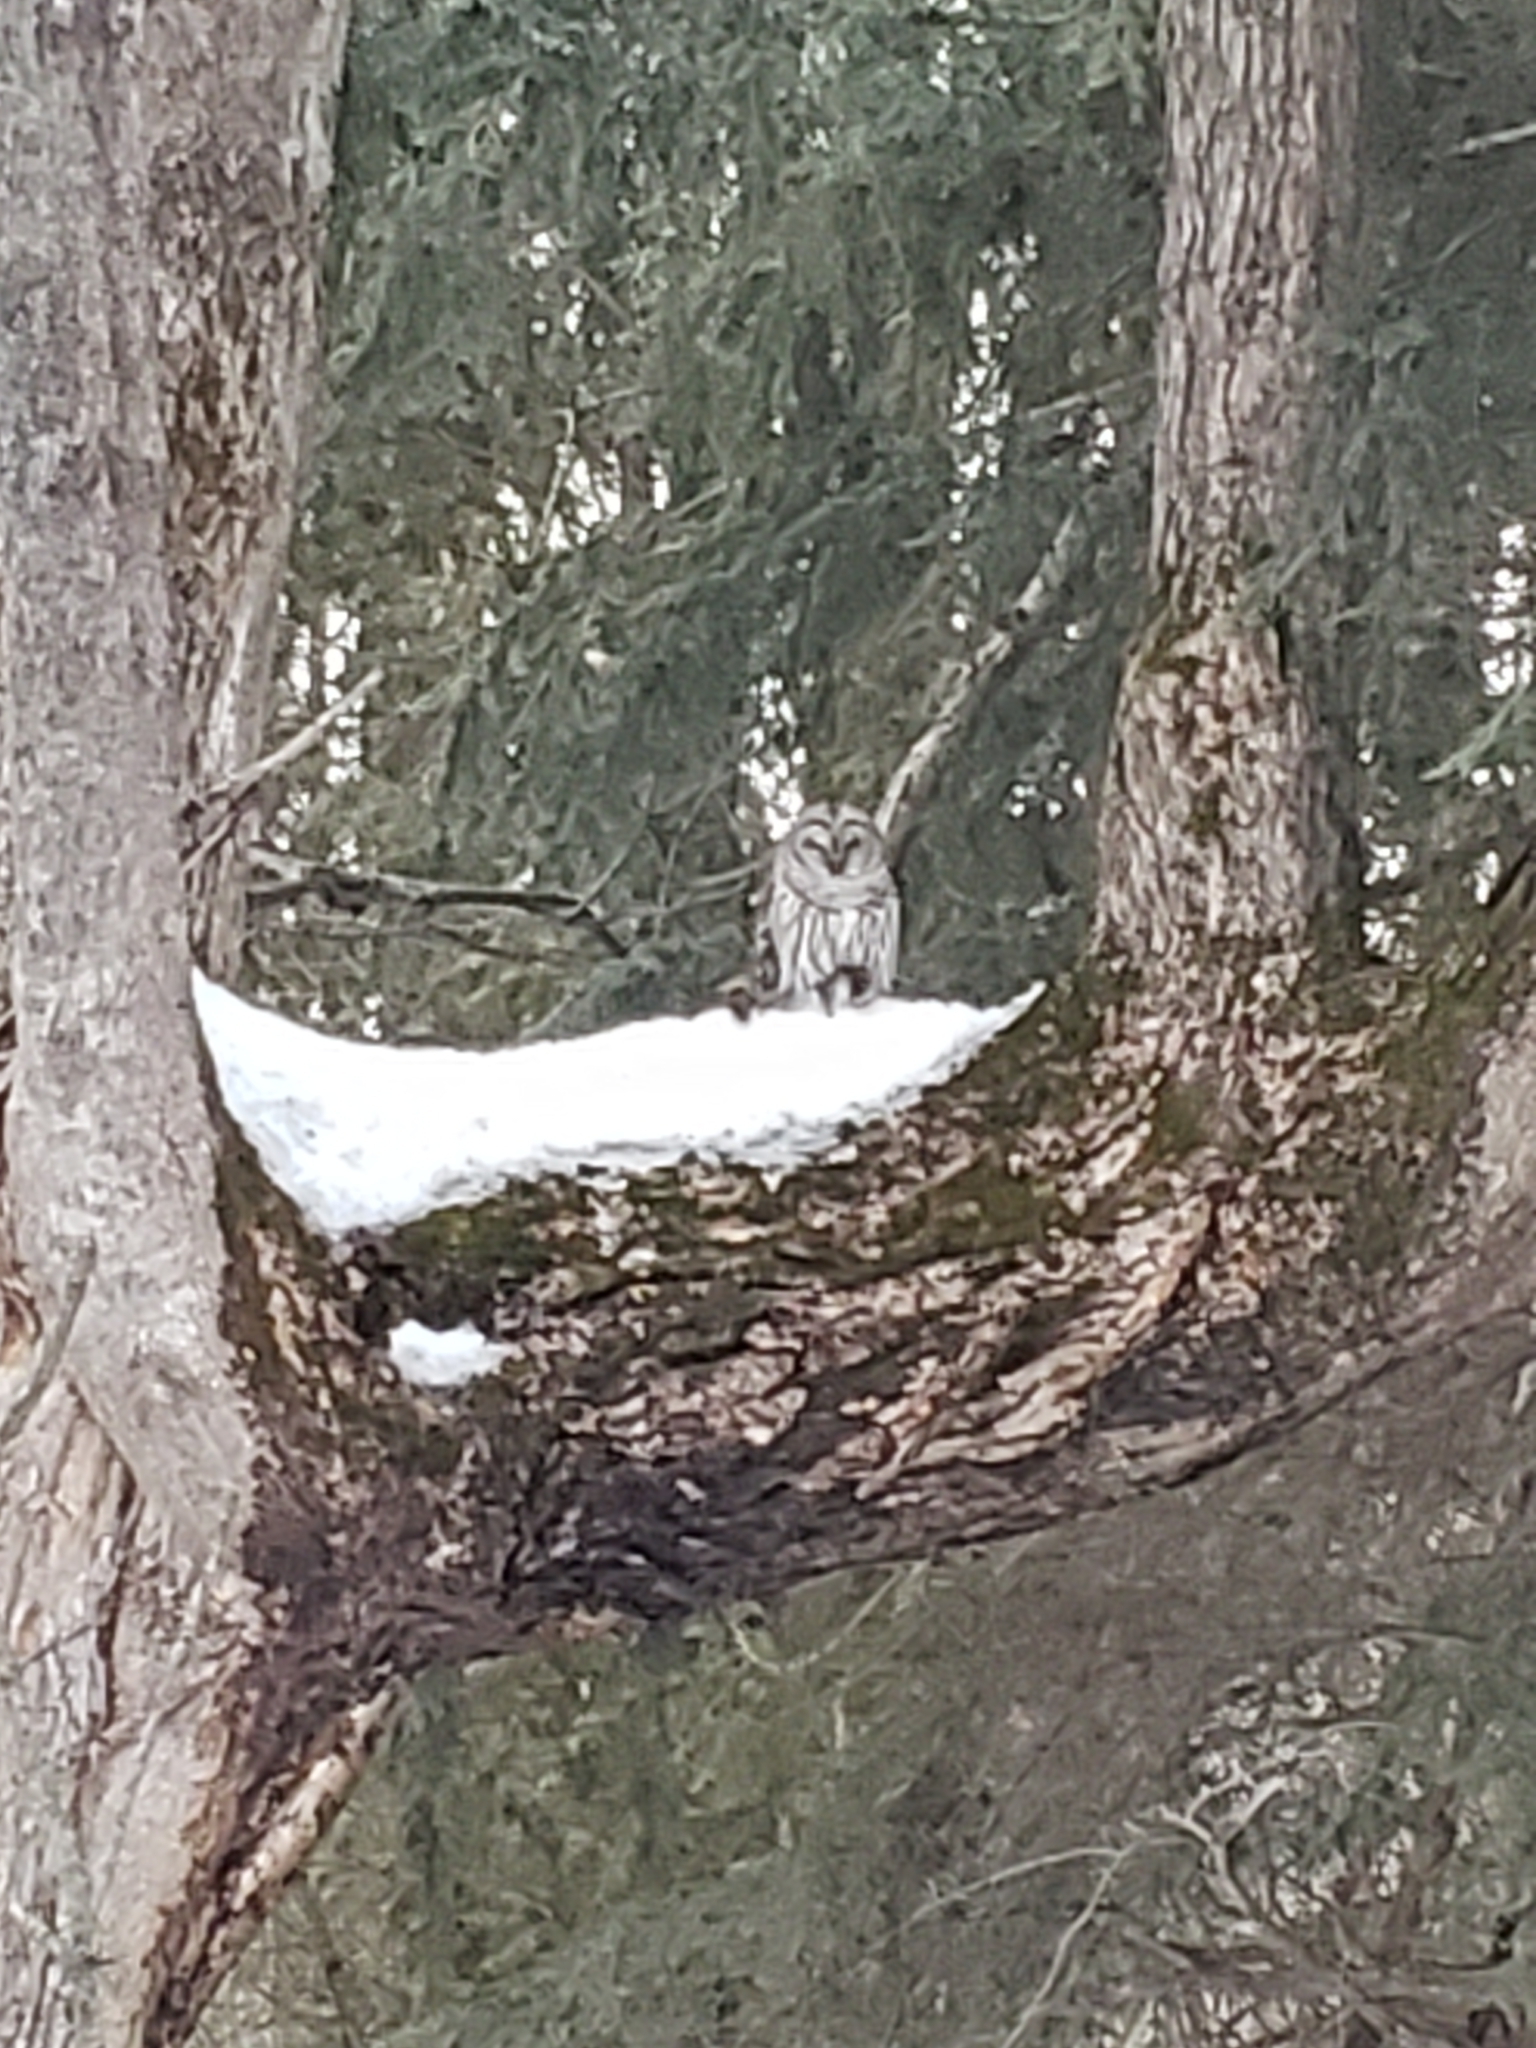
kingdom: Animalia
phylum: Chordata
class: Aves
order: Strigiformes
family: Strigidae
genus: Strix
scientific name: Strix varia
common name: Barred owl
